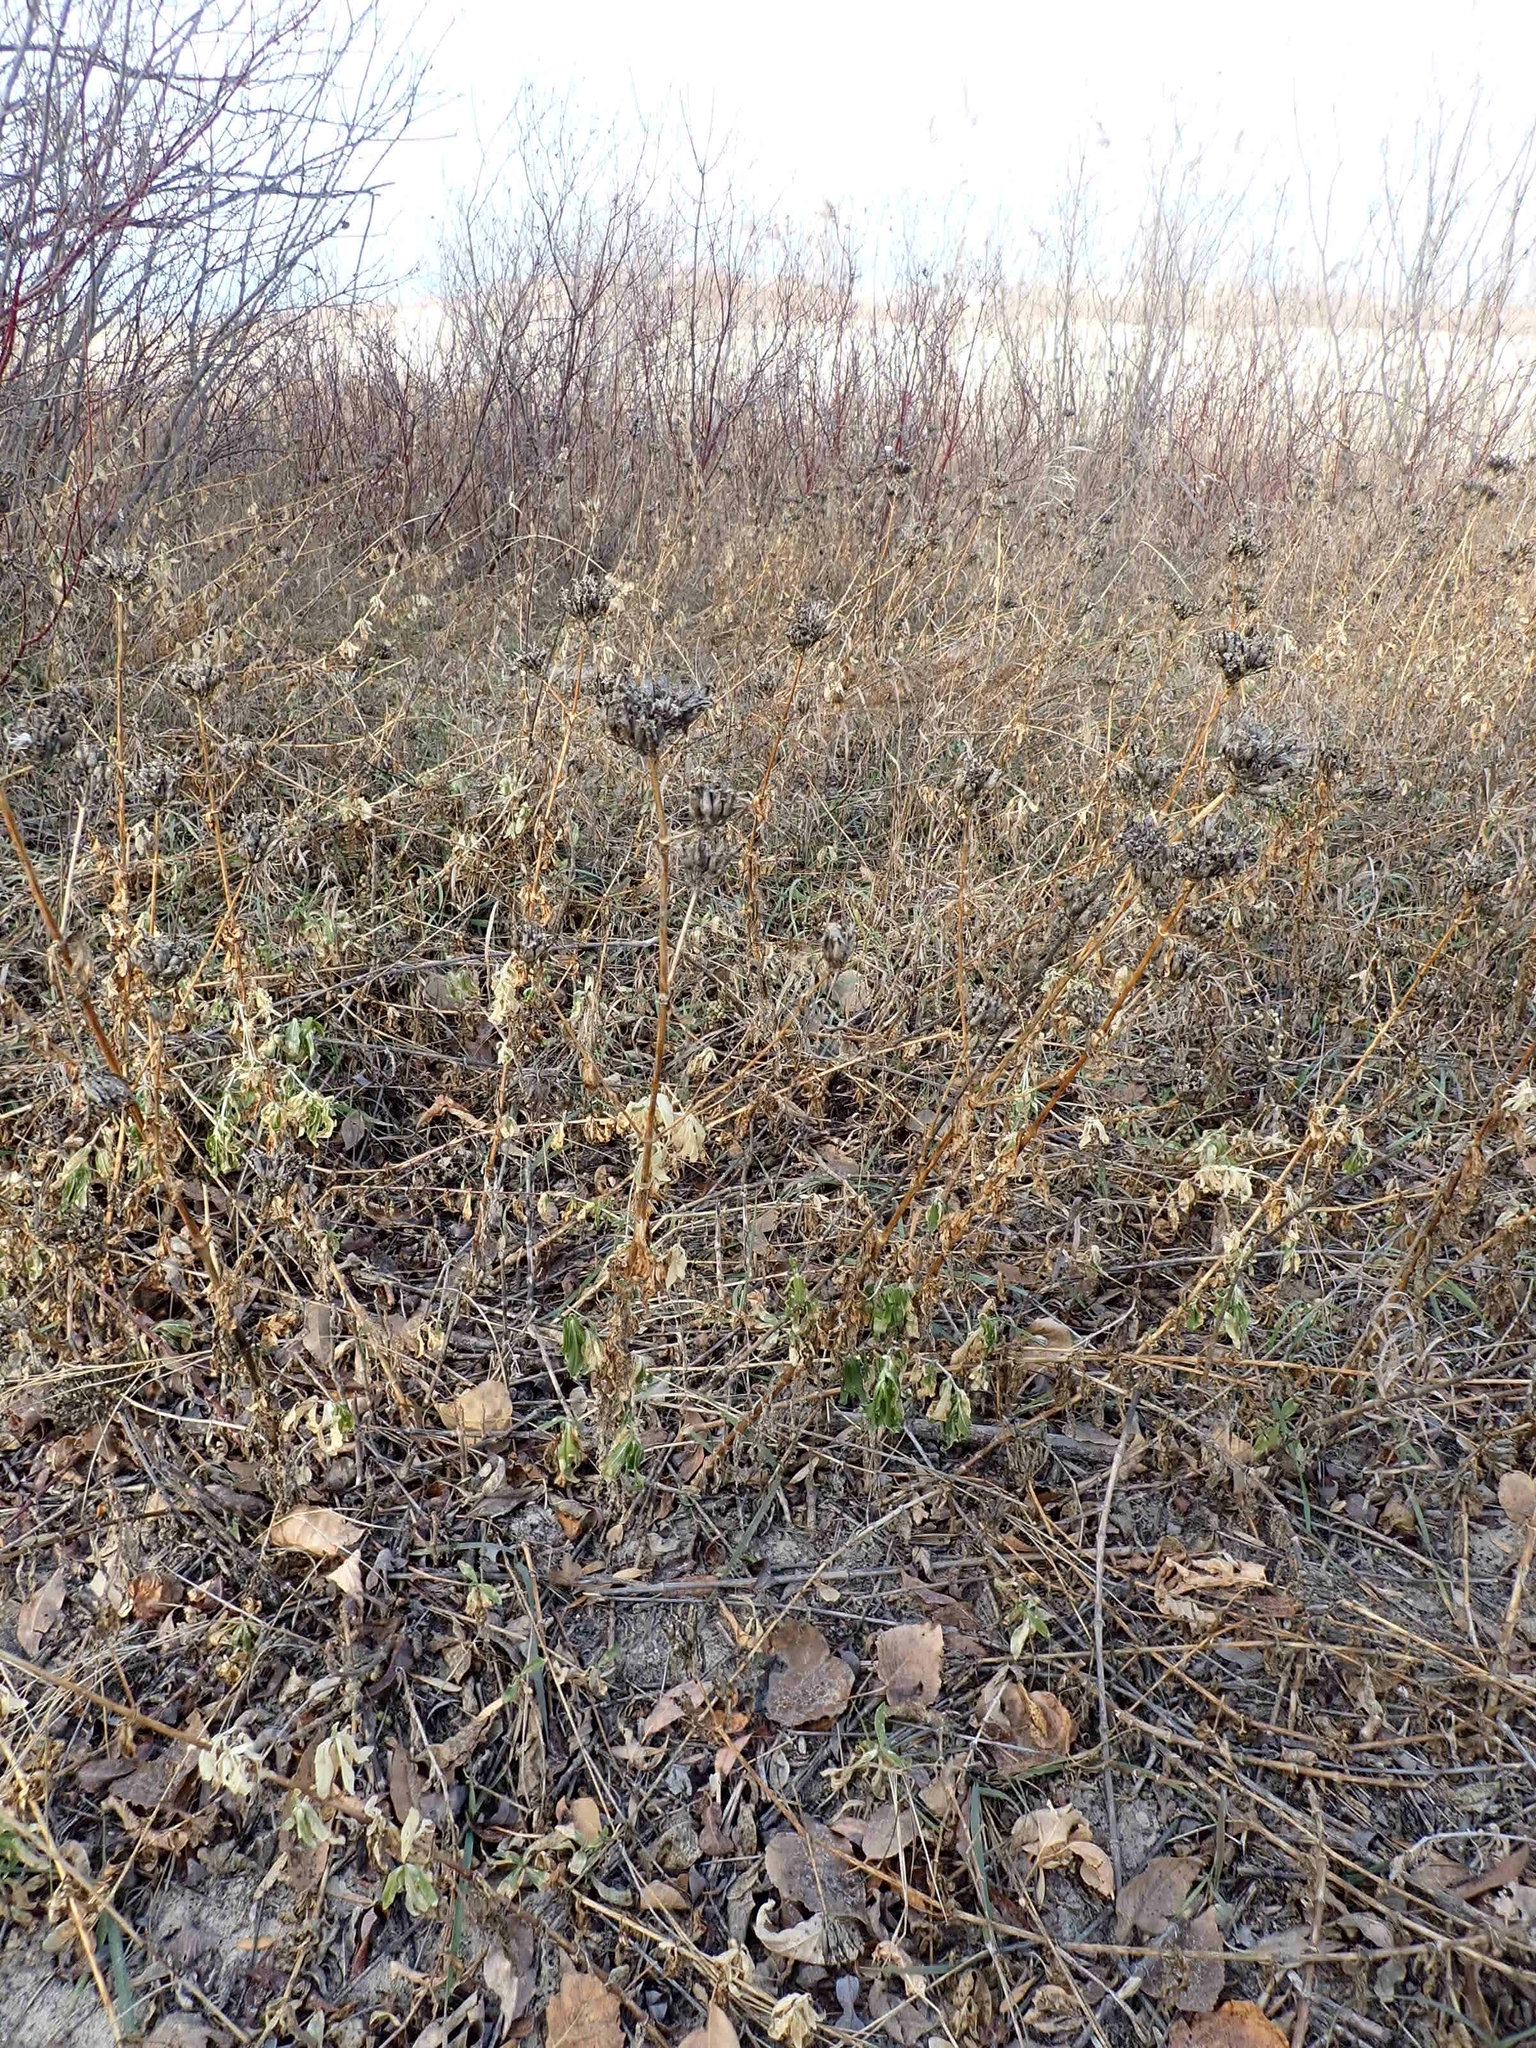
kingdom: Plantae
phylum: Tracheophyta
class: Magnoliopsida
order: Caryophyllales
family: Caryophyllaceae
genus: Saponaria
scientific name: Saponaria officinalis
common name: Soapwort
